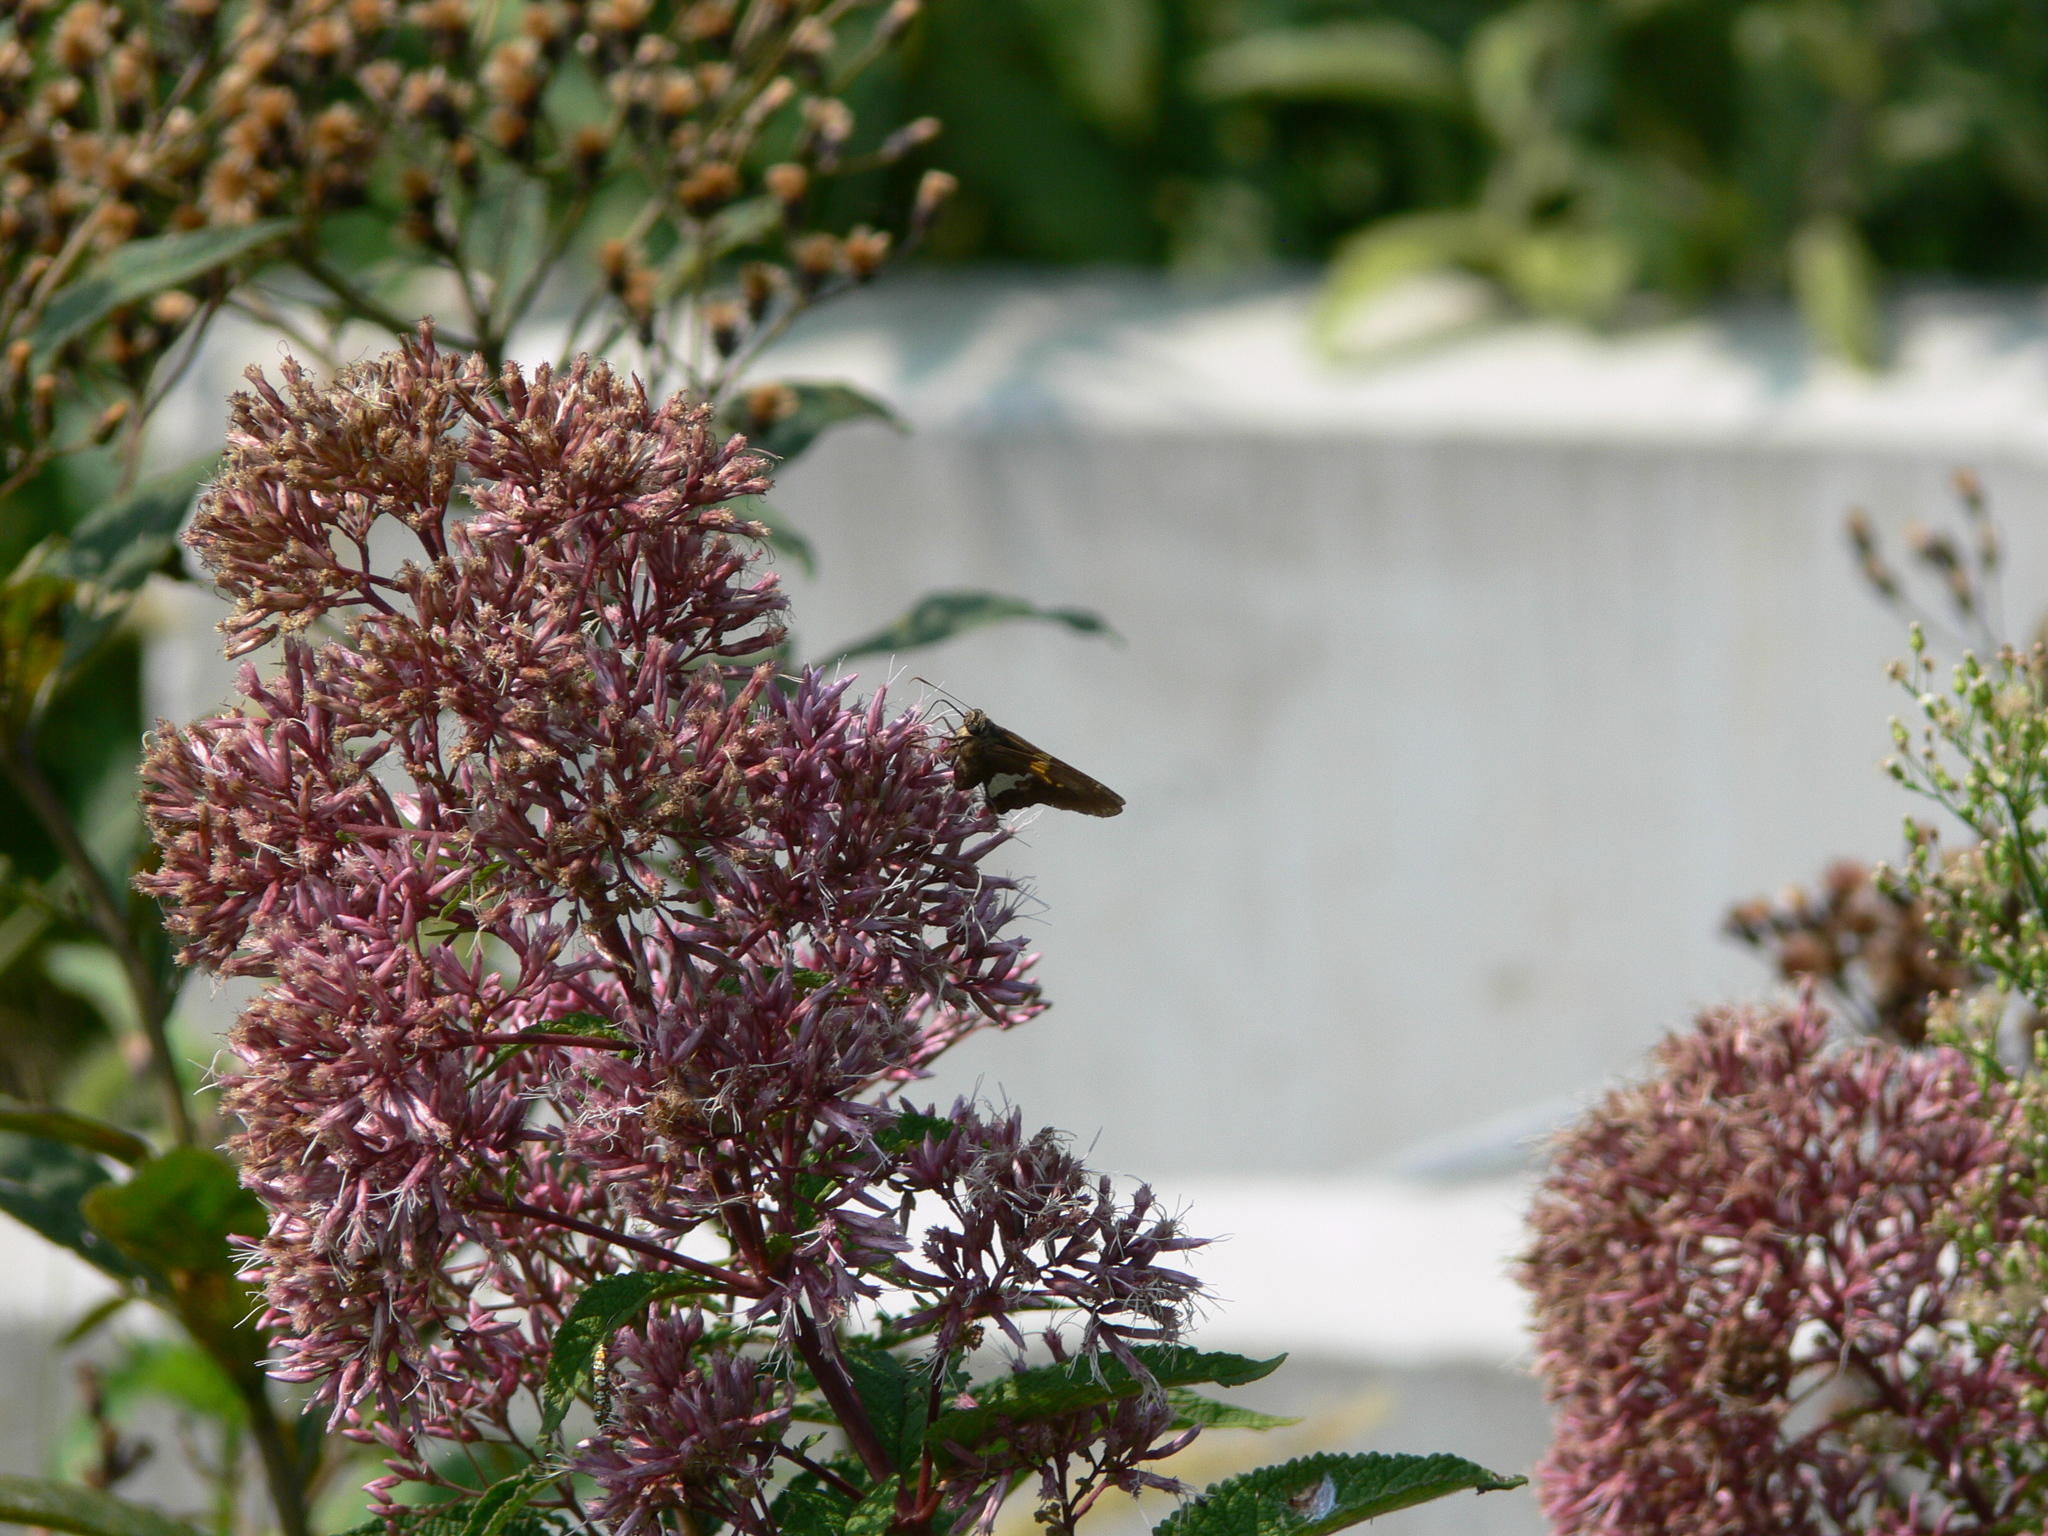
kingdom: Animalia
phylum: Arthropoda
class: Insecta
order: Lepidoptera
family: Hesperiidae
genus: Epargyreus
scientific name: Epargyreus clarus
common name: Silver-spotted skipper
